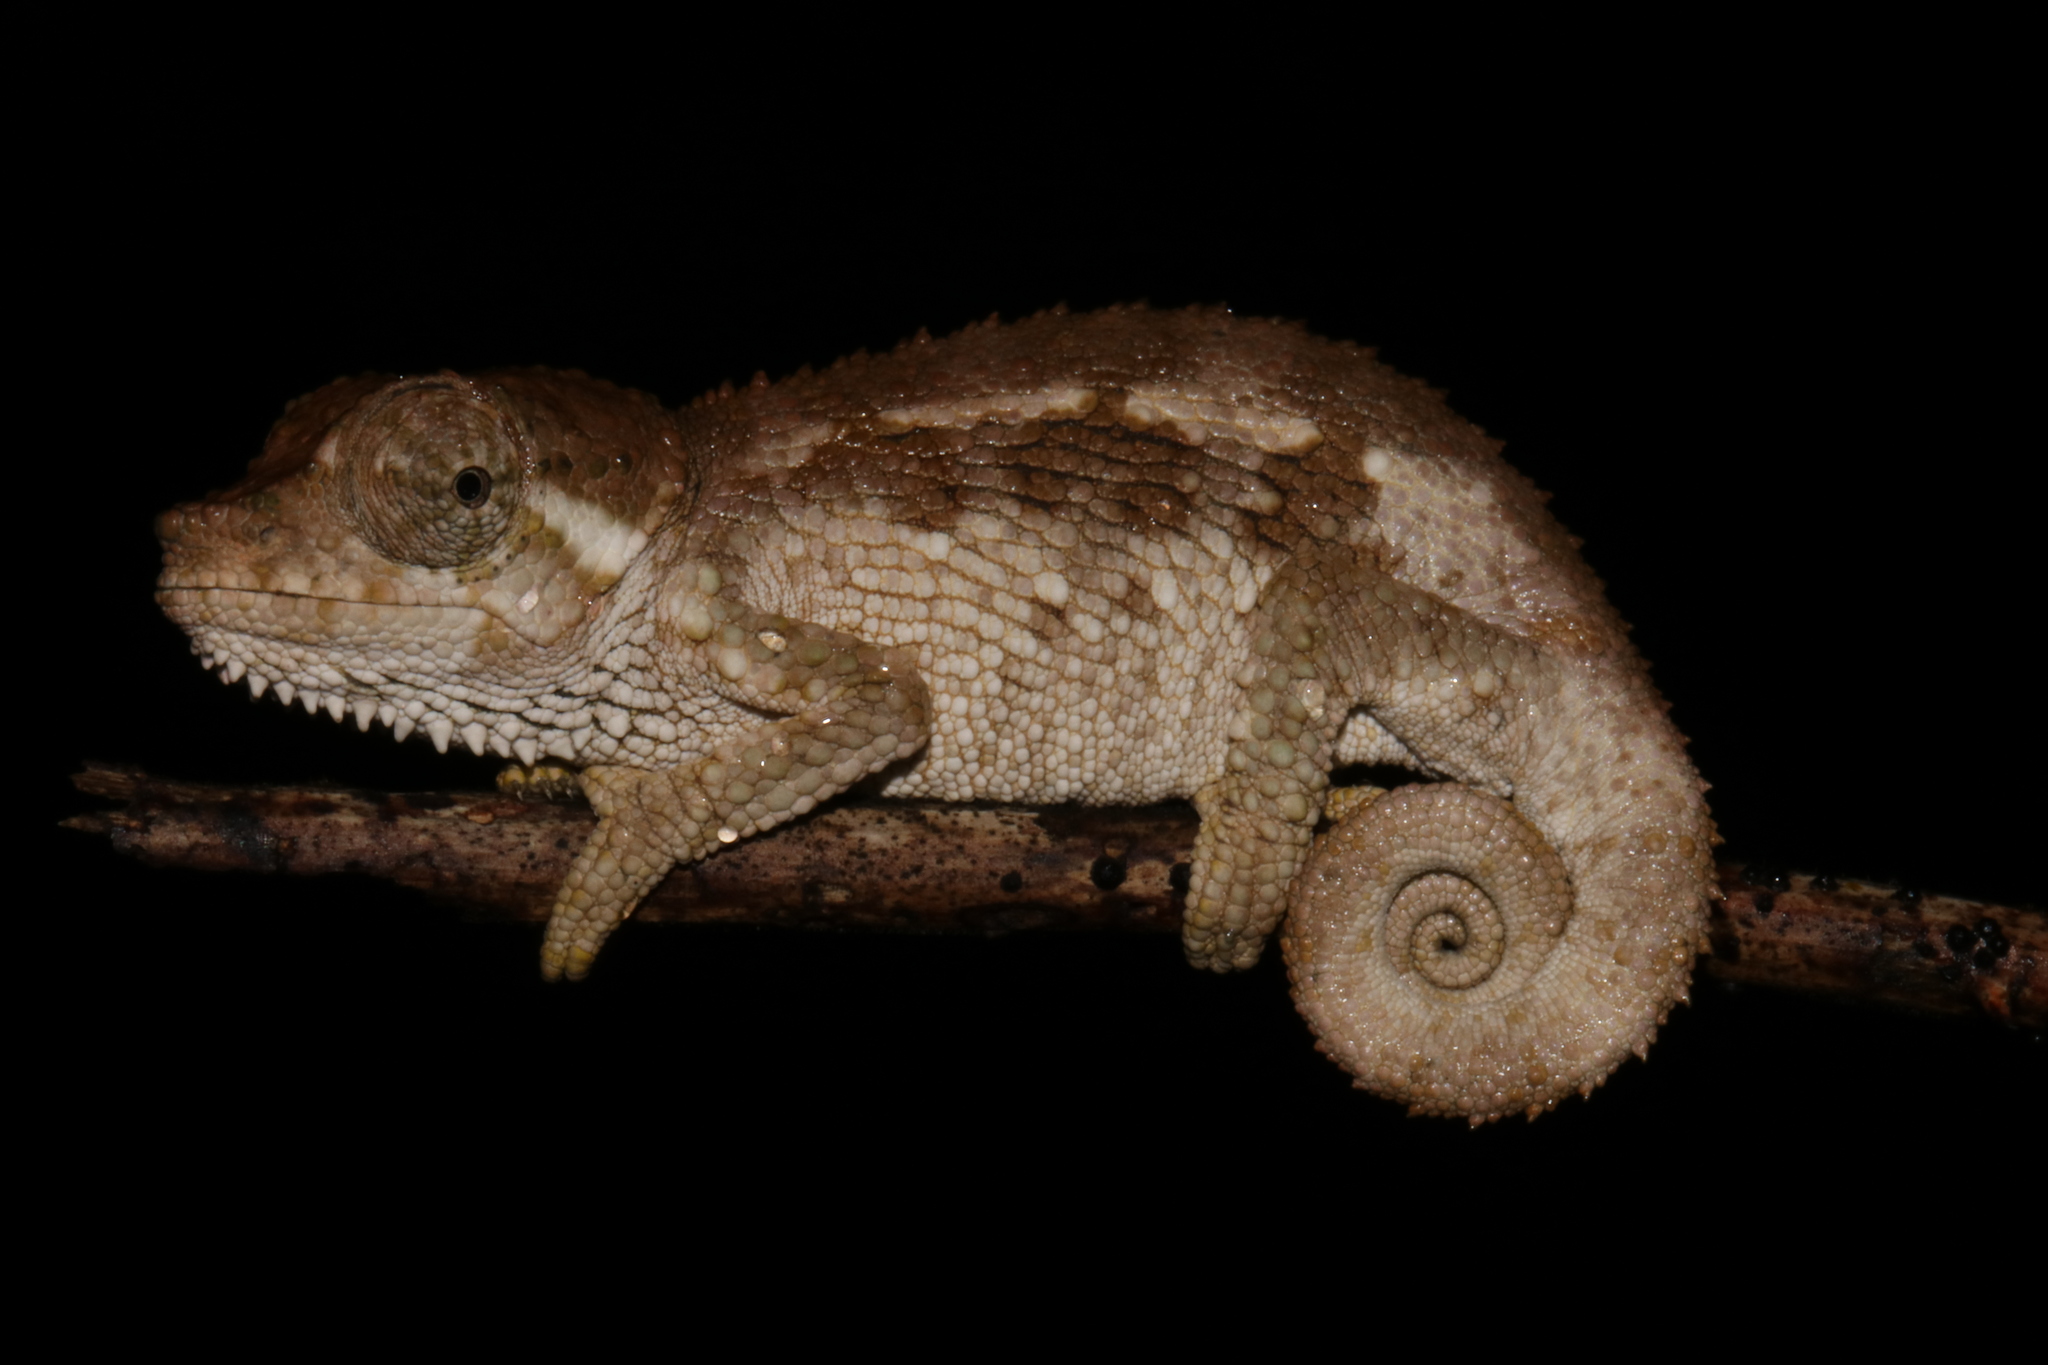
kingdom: Animalia
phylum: Chordata
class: Squamata
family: Chamaeleonidae
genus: Trioceros
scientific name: Trioceros tempeli
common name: Tanzania mountain chameleon
